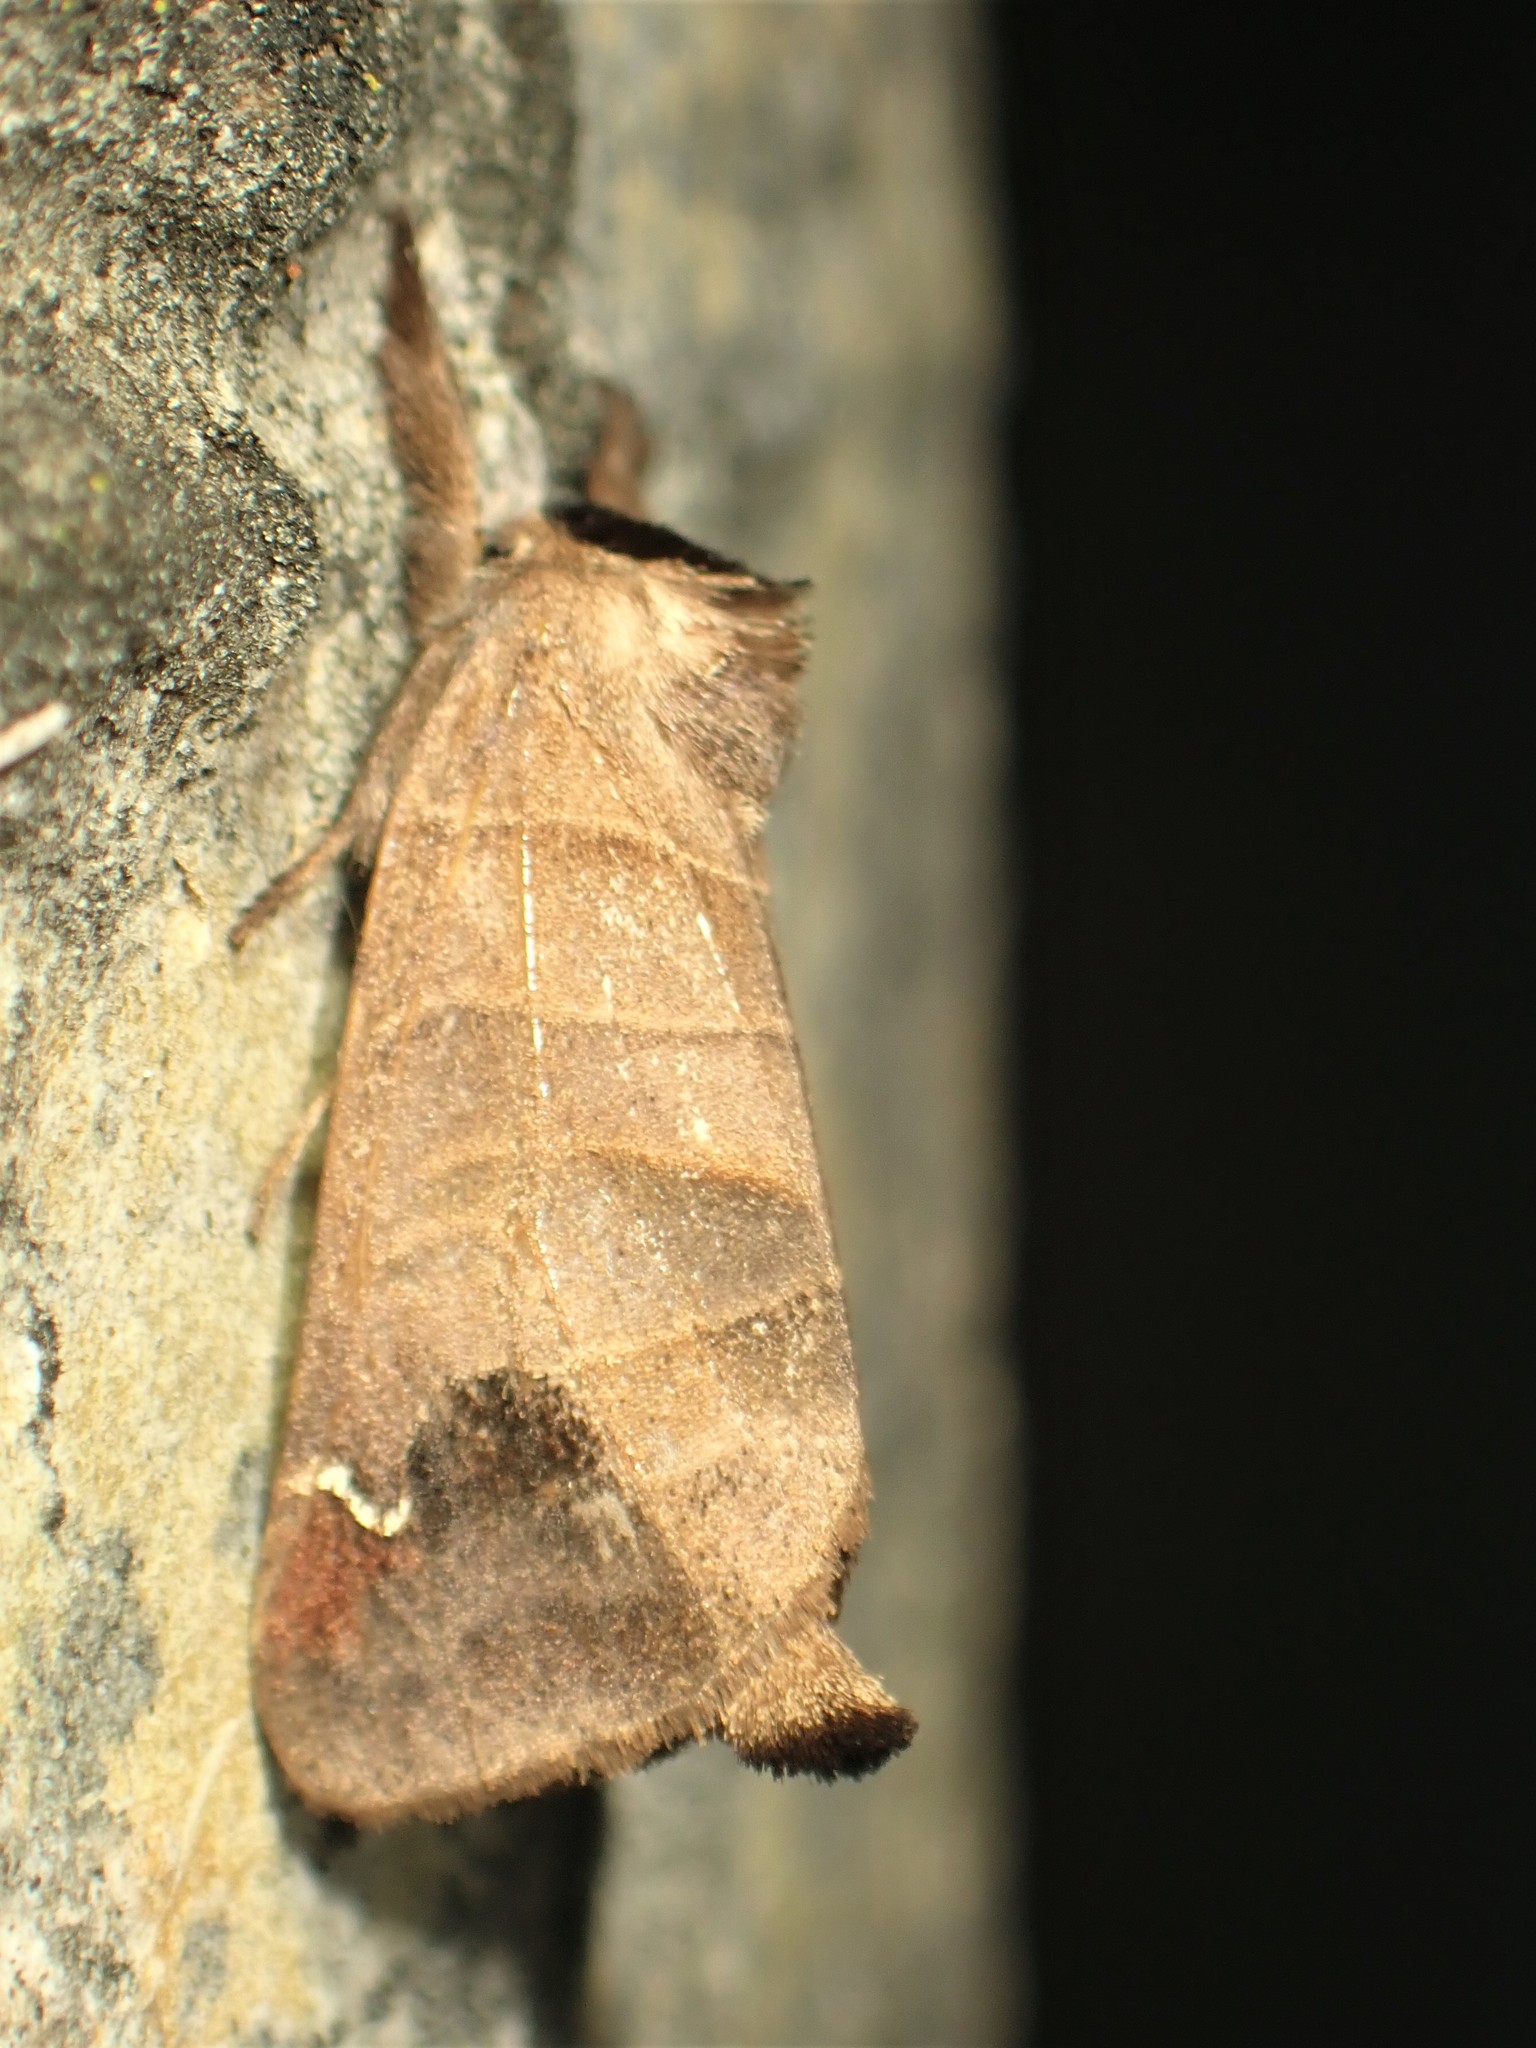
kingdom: Animalia
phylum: Arthropoda
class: Insecta
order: Lepidoptera
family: Notodontidae
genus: Clostera
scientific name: Clostera albosigma
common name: Sigmoid prominent
